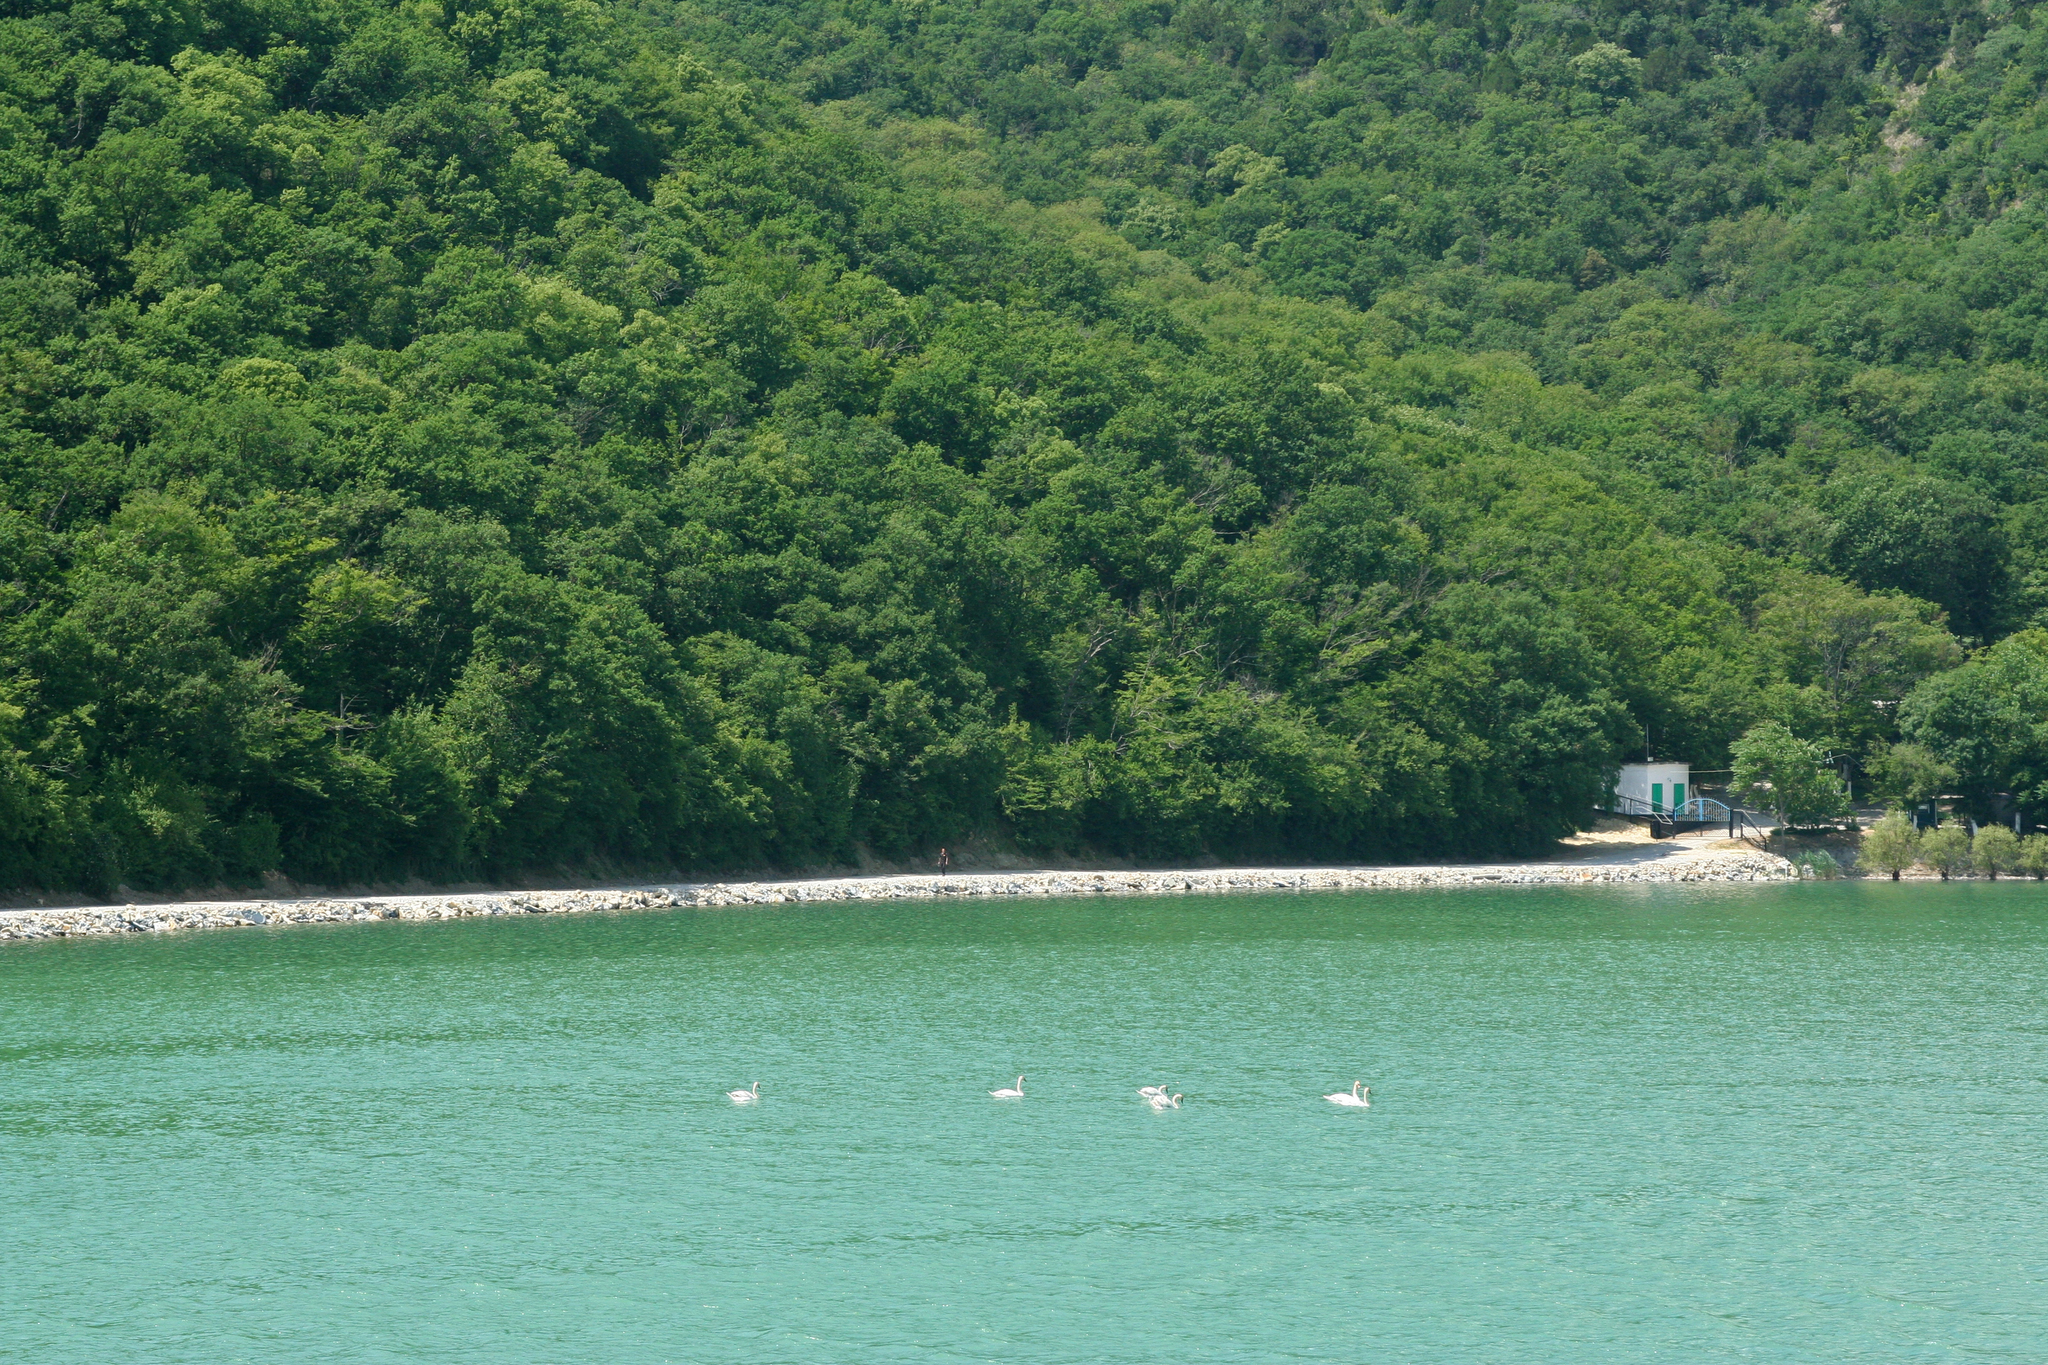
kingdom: Plantae
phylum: Tracheophyta
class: Magnoliopsida
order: Fagales
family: Betulaceae
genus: Carpinus
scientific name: Carpinus orientalis
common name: Eastern hornbeam
